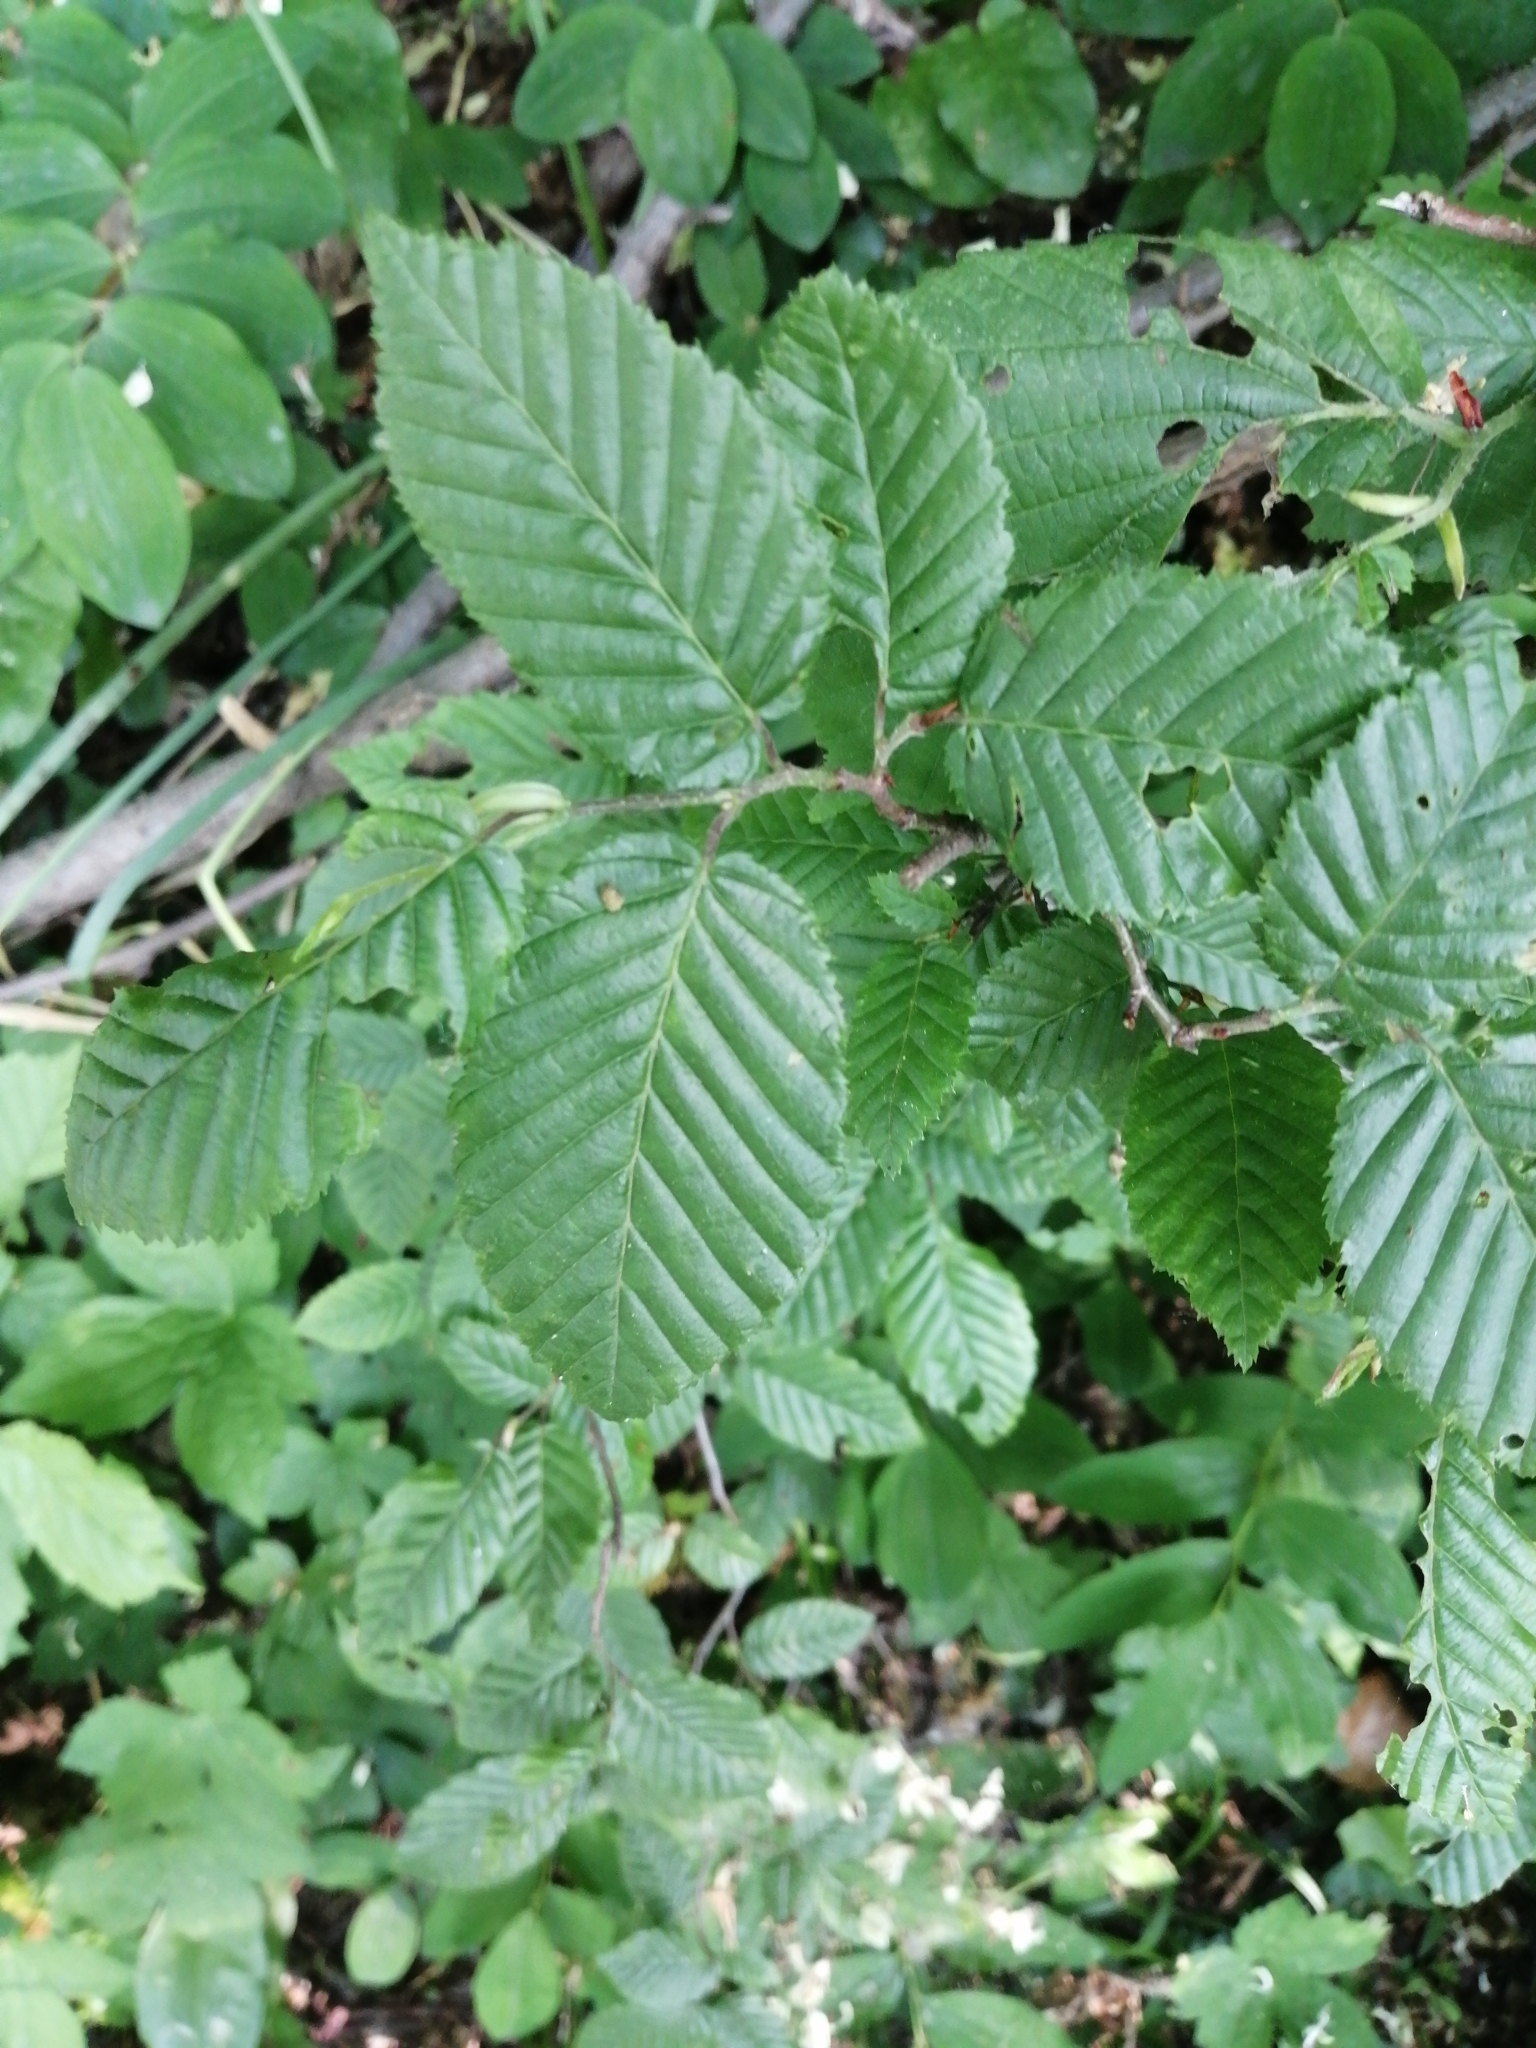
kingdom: Plantae
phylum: Tracheophyta
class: Magnoliopsida
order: Fagales
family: Betulaceae
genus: Carpinus
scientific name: Carpinus betulus
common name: Hornbeam
